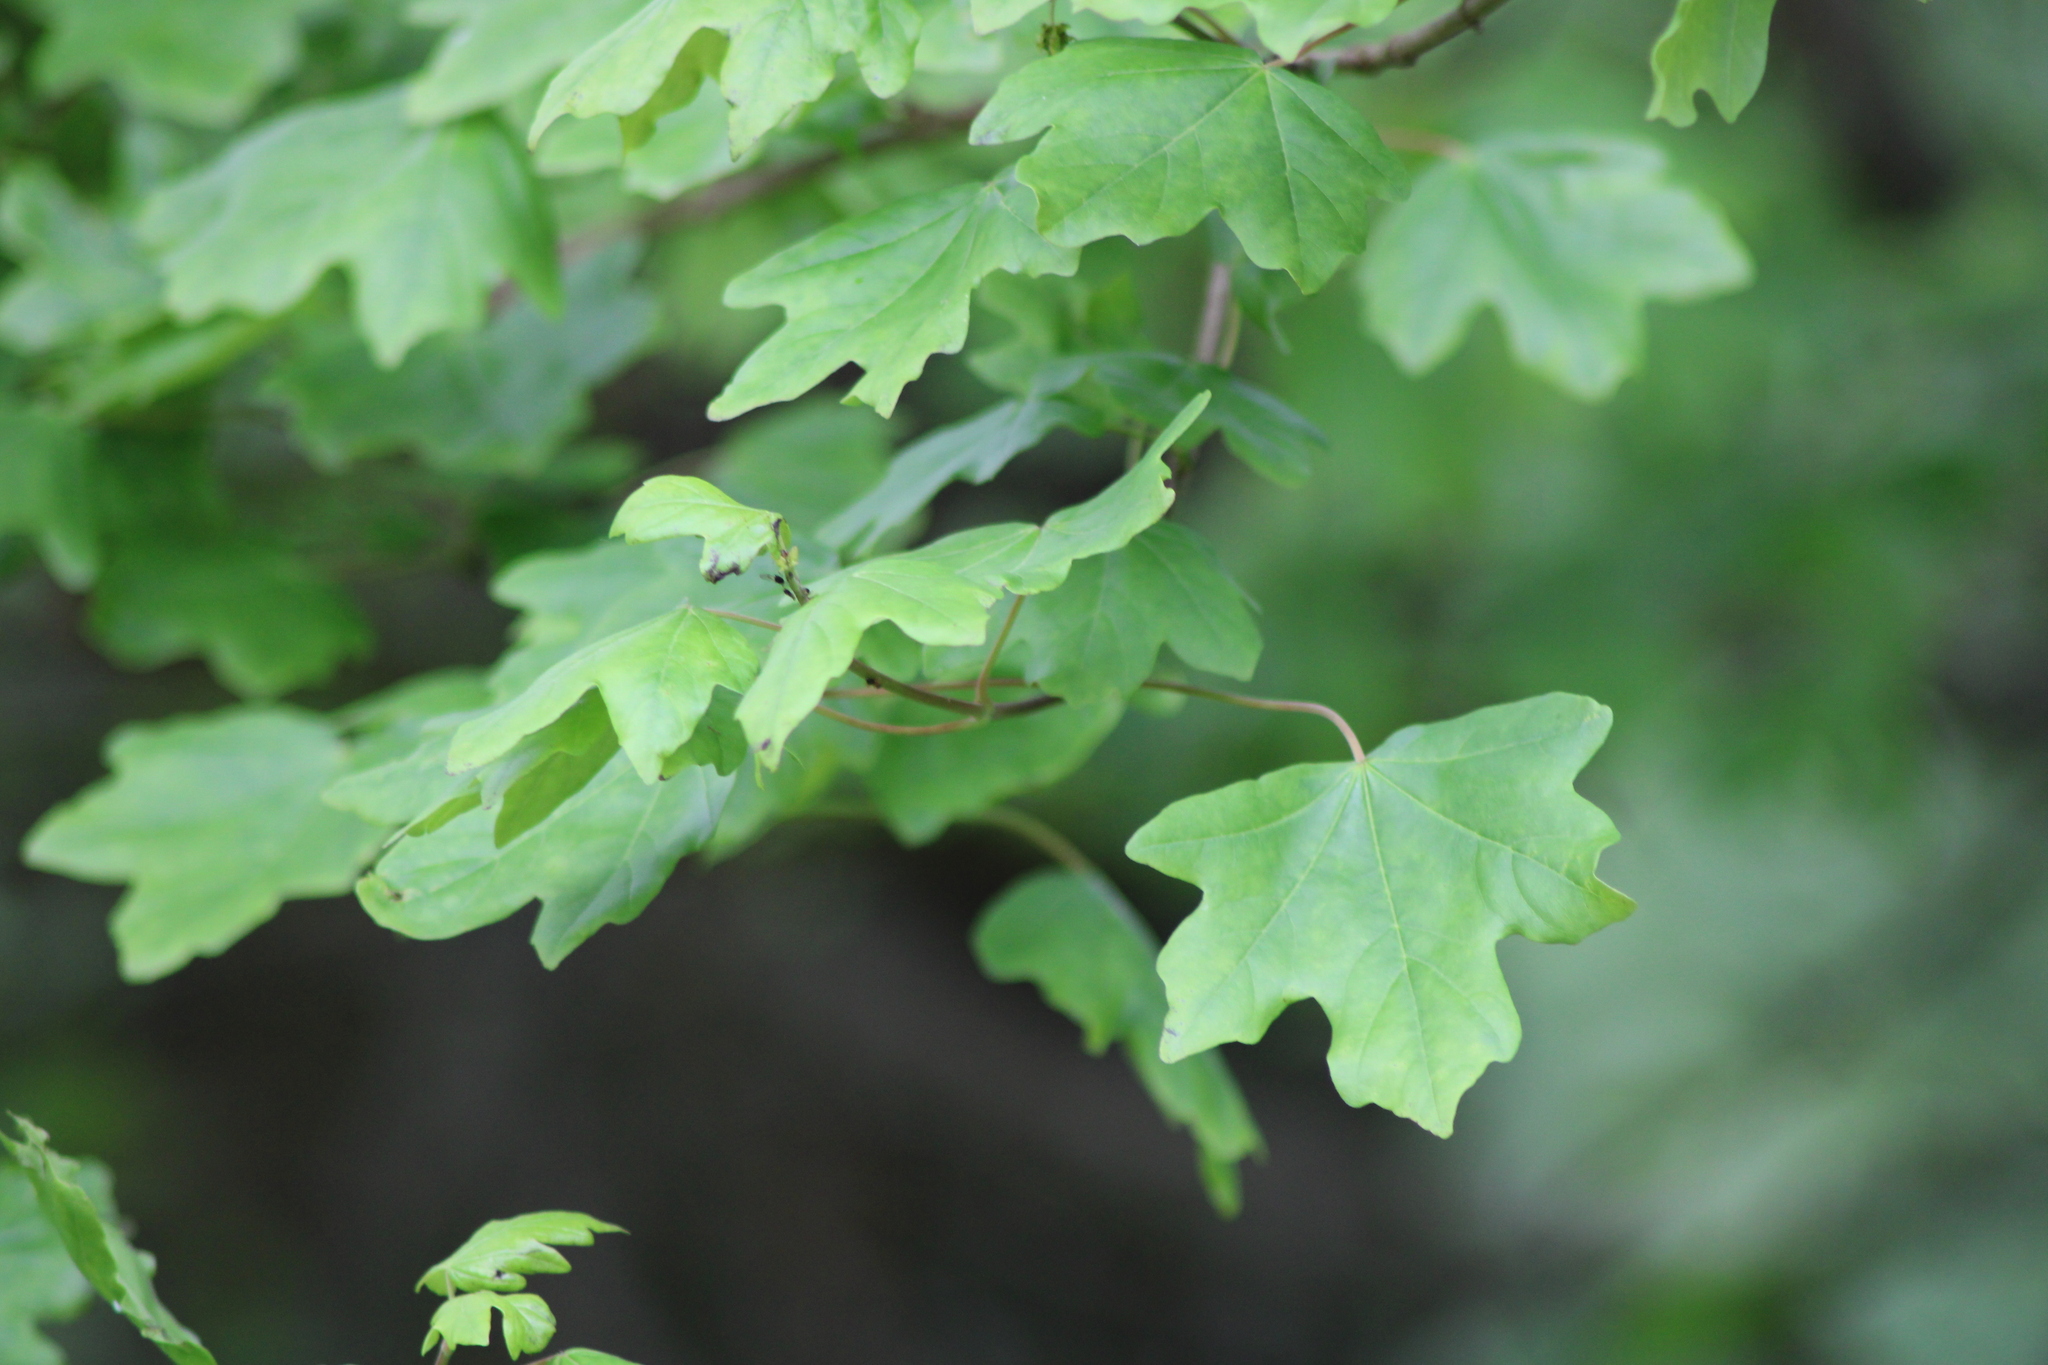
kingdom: Plantae
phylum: Tracheophyta
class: Magnoliopsida
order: Sapindales
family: Sapindaceae
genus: Acer
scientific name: Acer campestre
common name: Field maple
